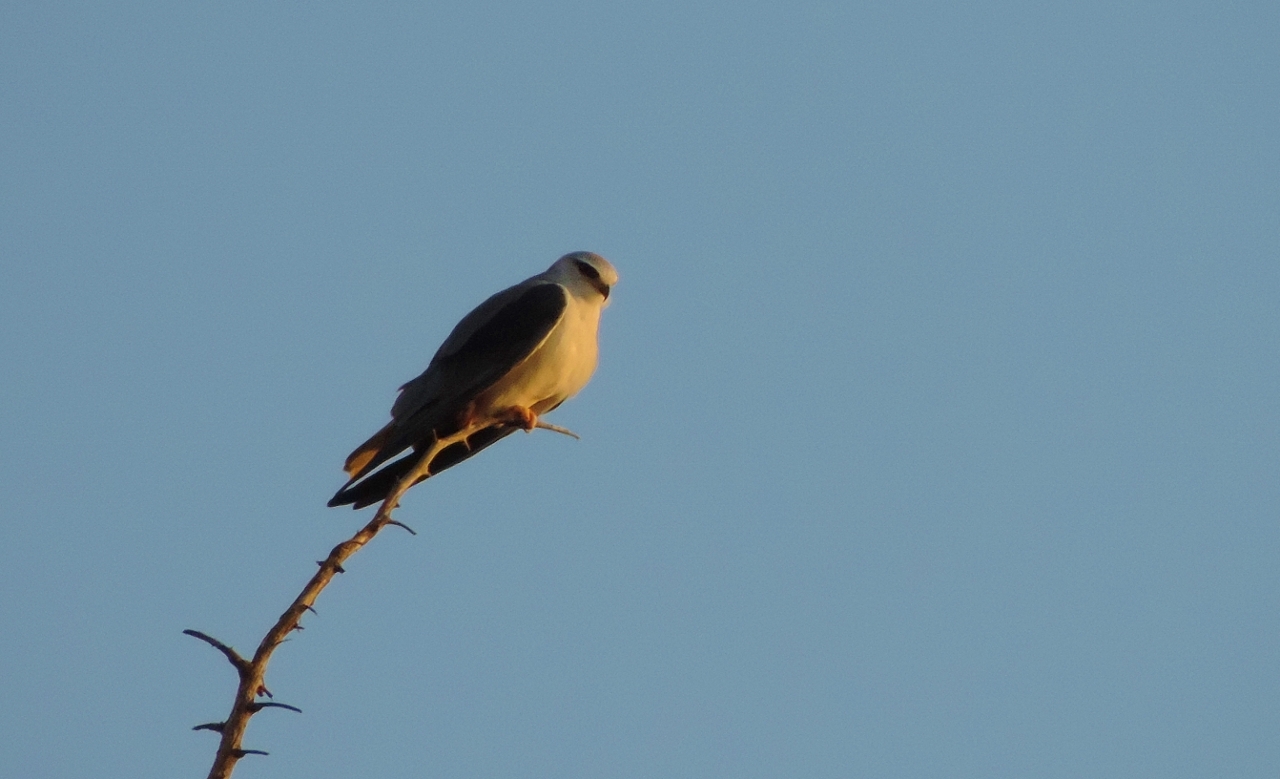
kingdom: Animalia
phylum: Chordata
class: Aves
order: Accipitriformes
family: Accipitridae
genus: Elanus
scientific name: Elanus caeruleus
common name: Black-winged kite
